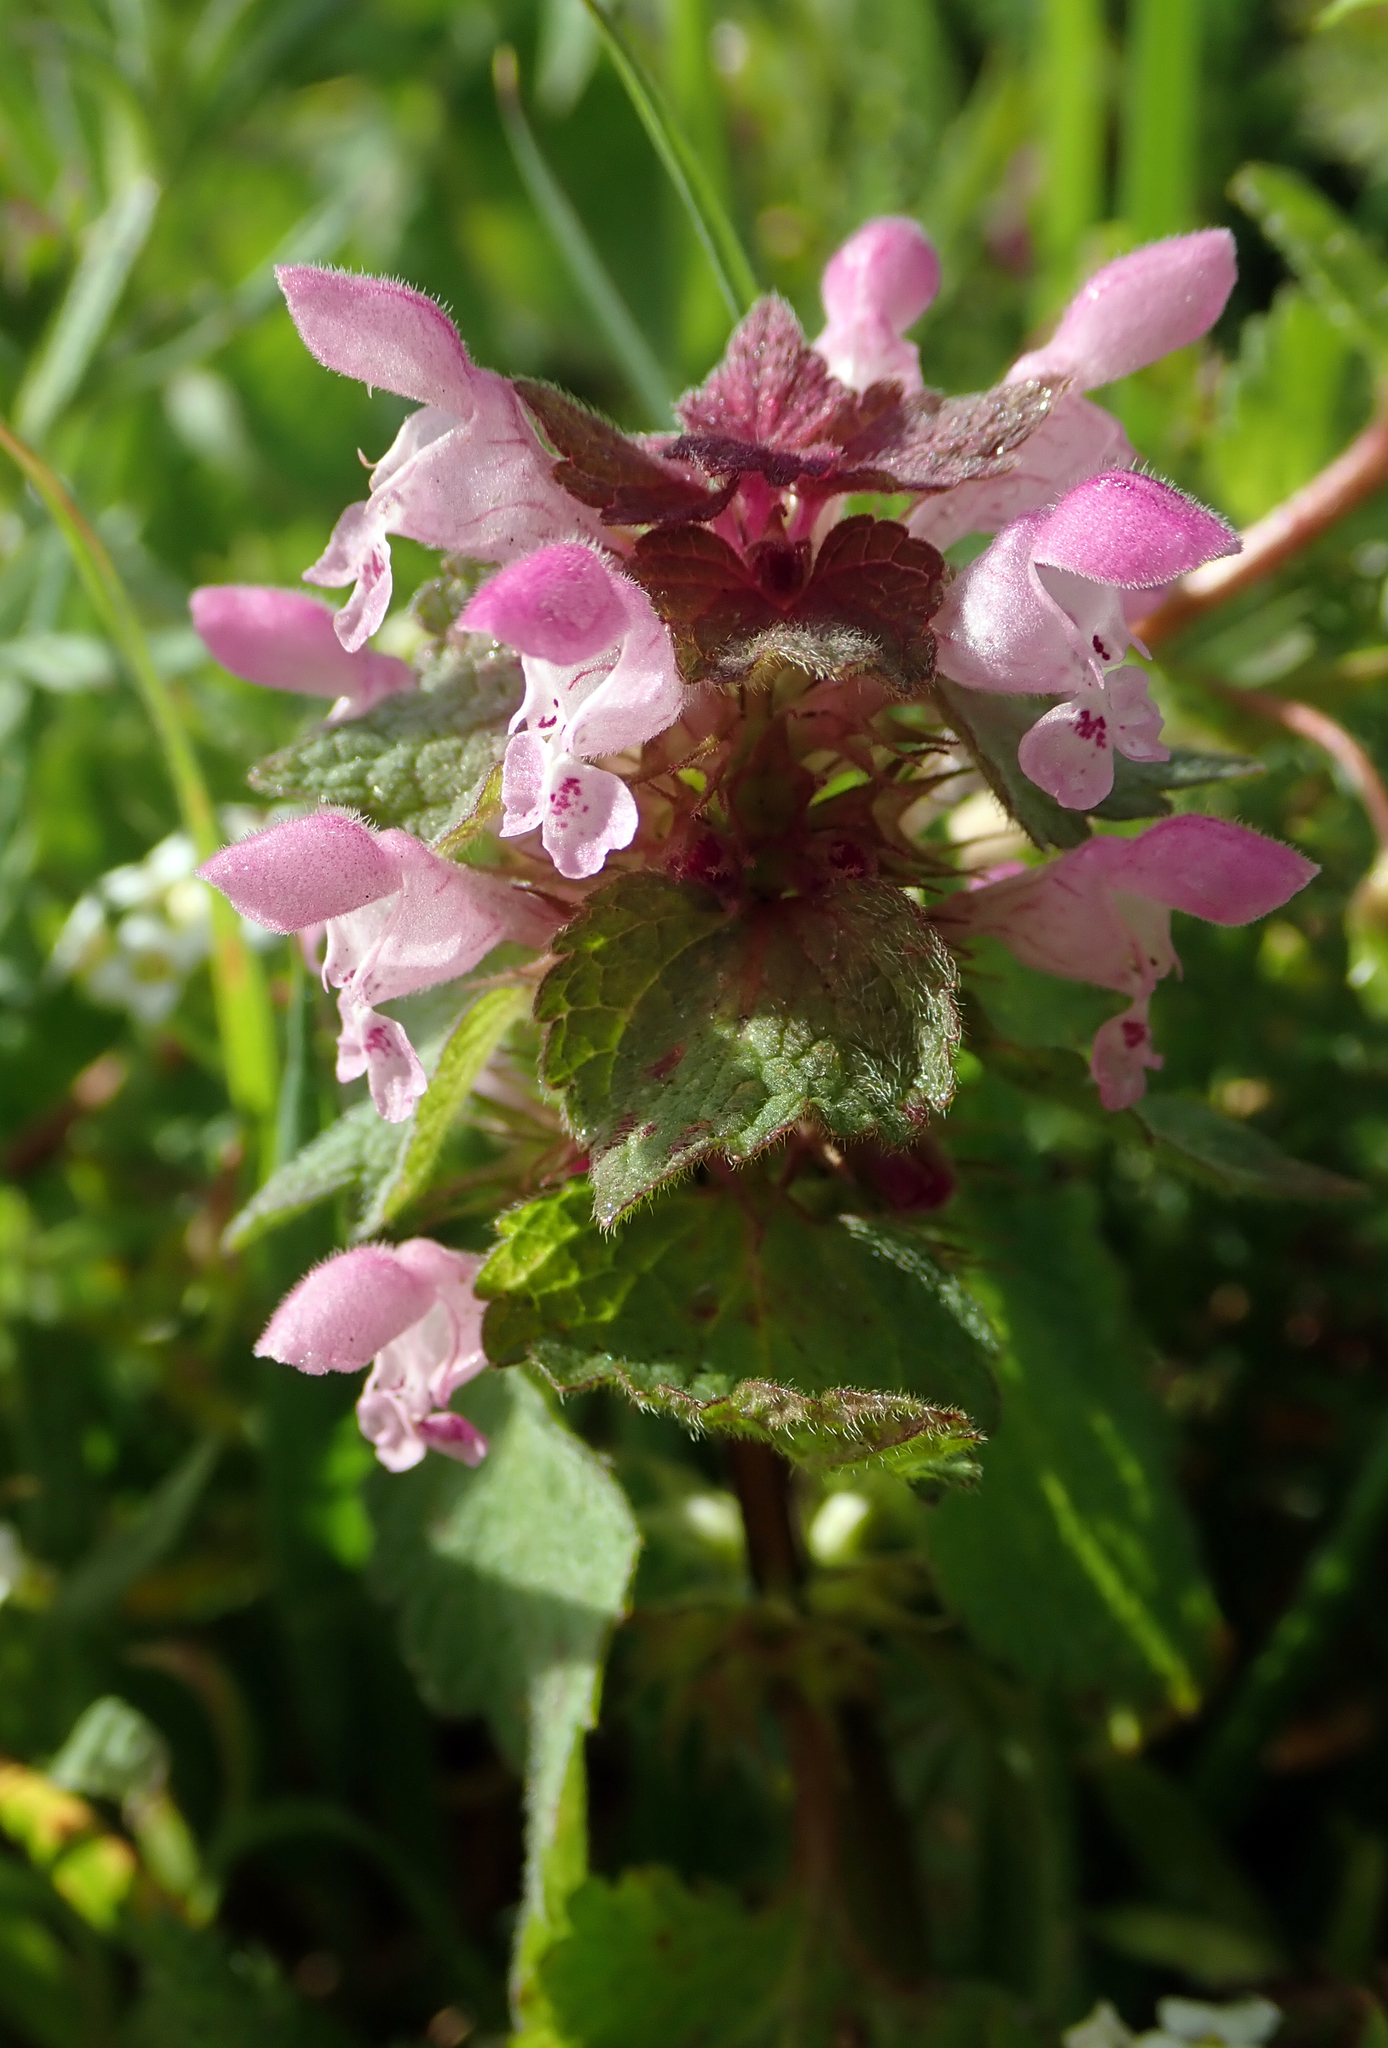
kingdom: Plantae
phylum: Tracheophyta
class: Magnoliopsida
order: Lamiales
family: Lamiaceae
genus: Lamium
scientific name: Lamium purpureum
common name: Red dead-nettle
